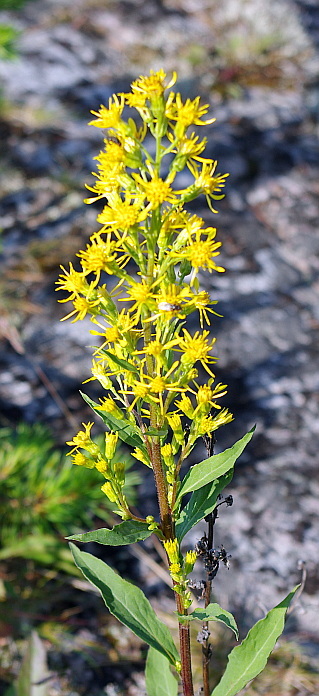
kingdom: Plantae
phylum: Tracheophyta
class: Magnoliopsida
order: Asterales
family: Asteraceae
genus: Solidago
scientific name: Solidago virgaurea
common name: Goldenrod
